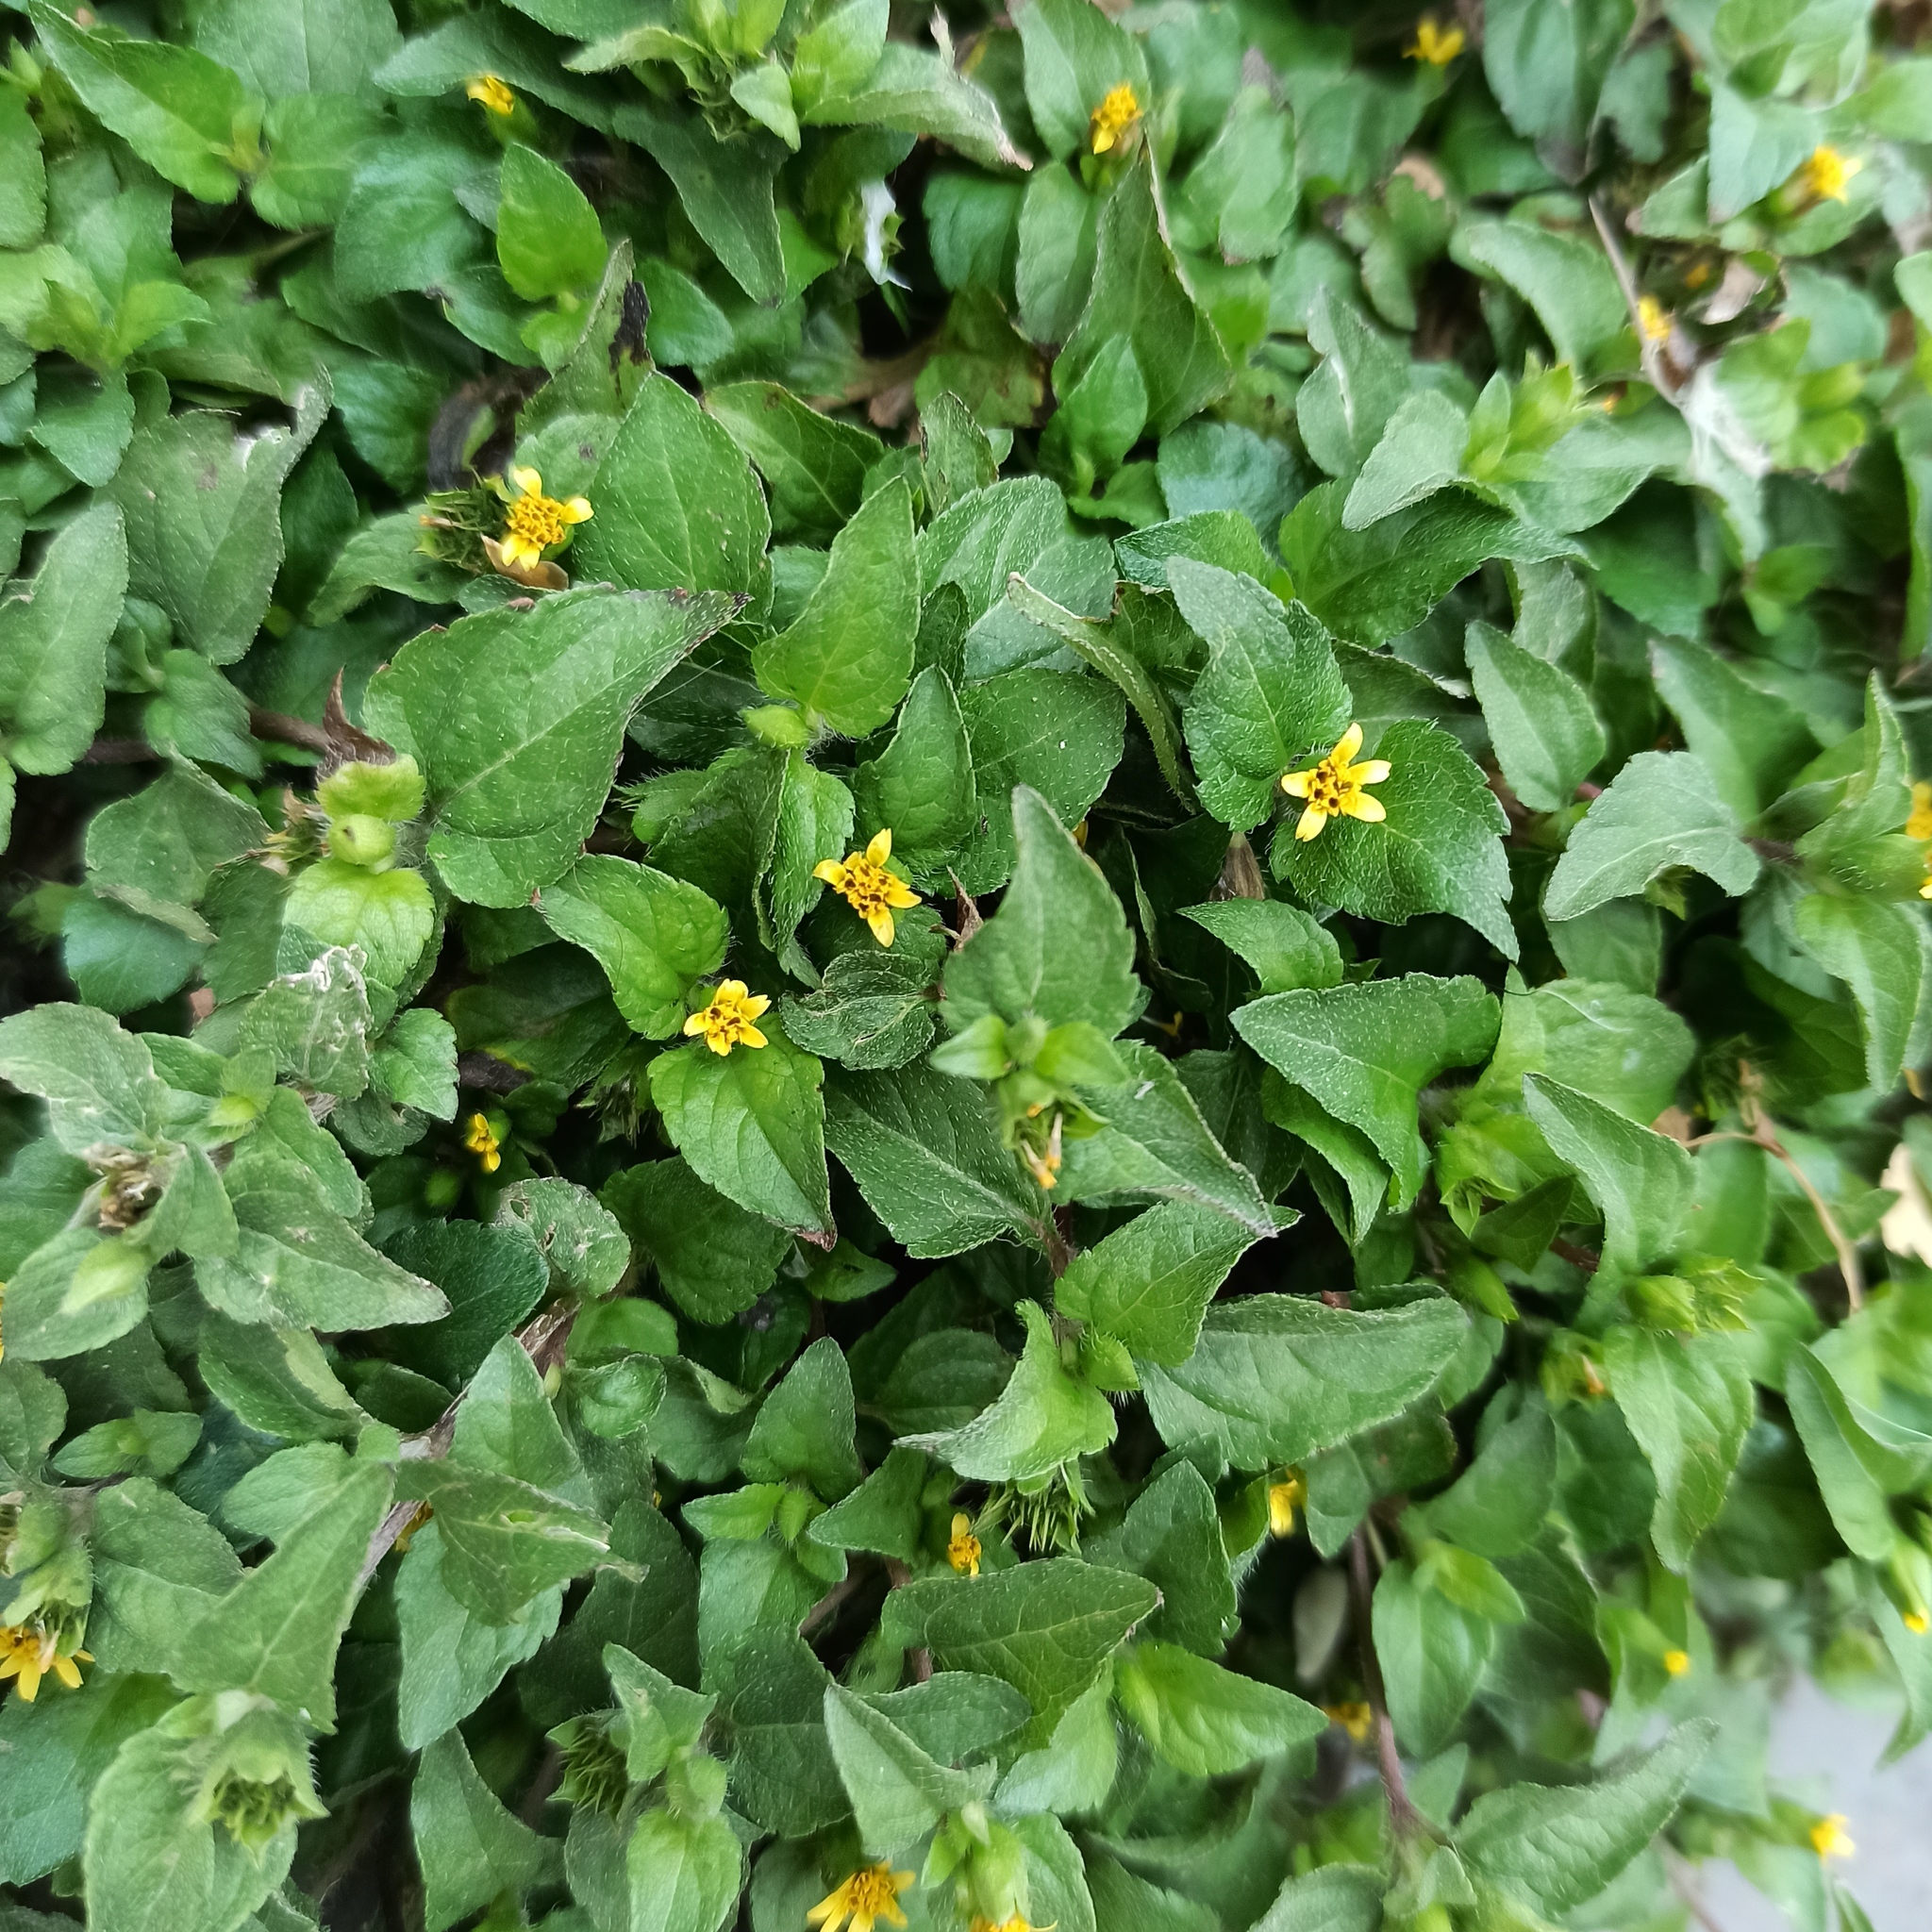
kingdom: Plantae
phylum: Tracheophyta
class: Magnoliopsida
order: Asterales
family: Asteraceae
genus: Calyptocarpus
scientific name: Calyptocarpus vialis
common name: Straggler daisy
